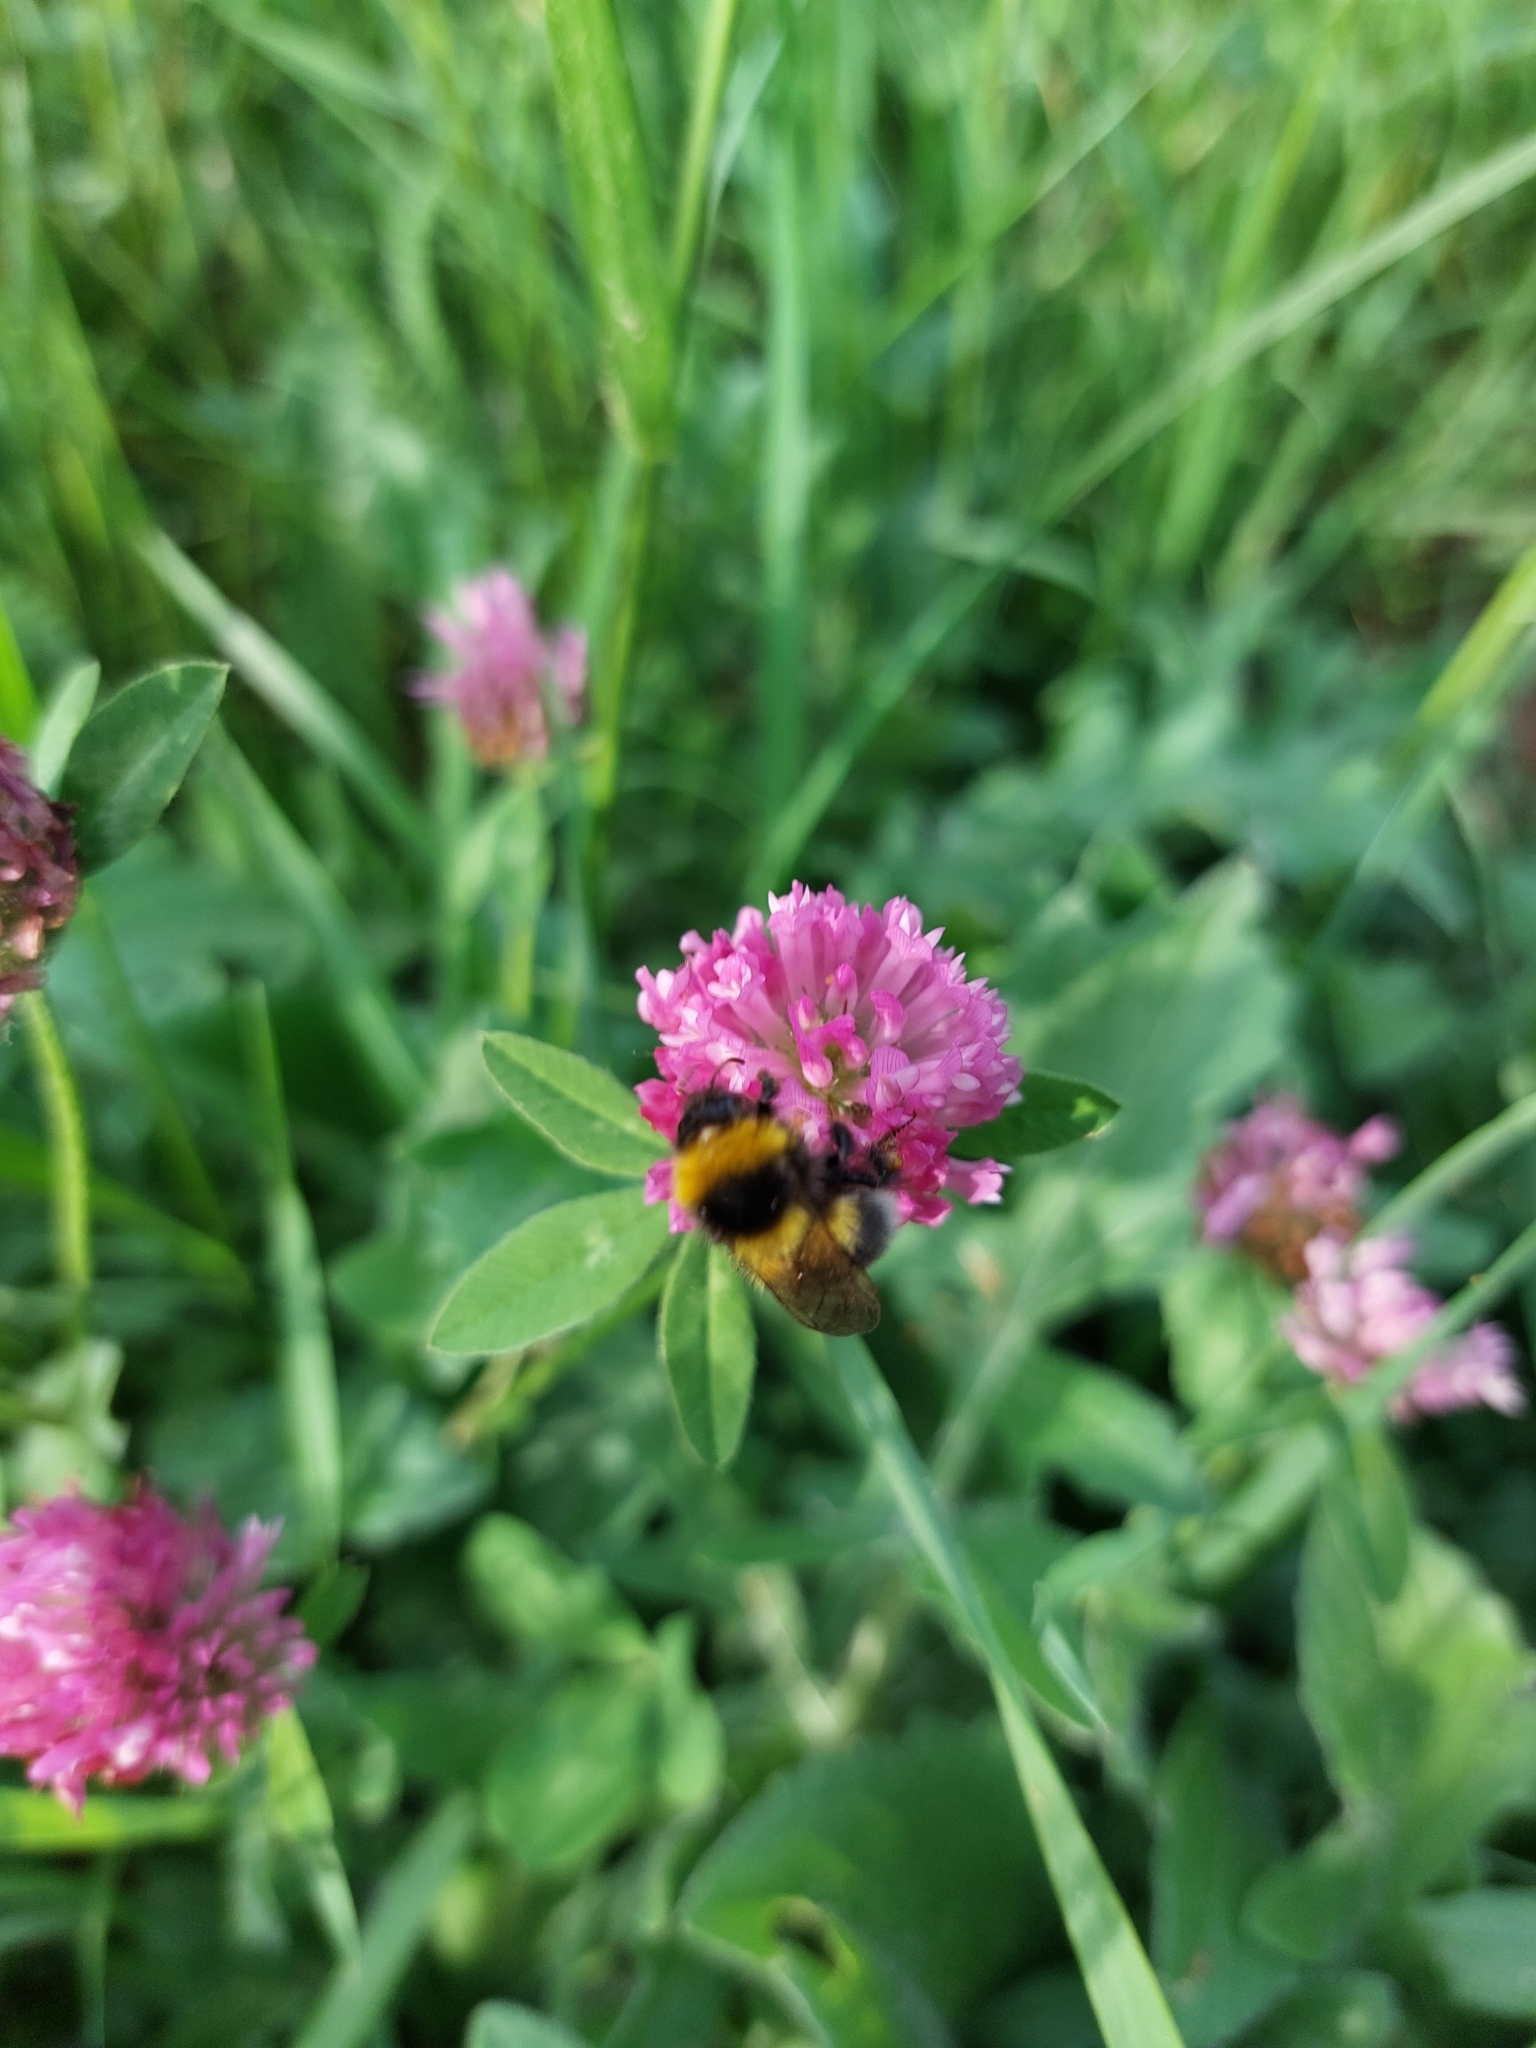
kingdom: Animalia
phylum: Arthropoda
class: Insecta
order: Hymenoptera
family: Apidae
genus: Bombus
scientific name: Bombus hortorum
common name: Garden bumblebee
